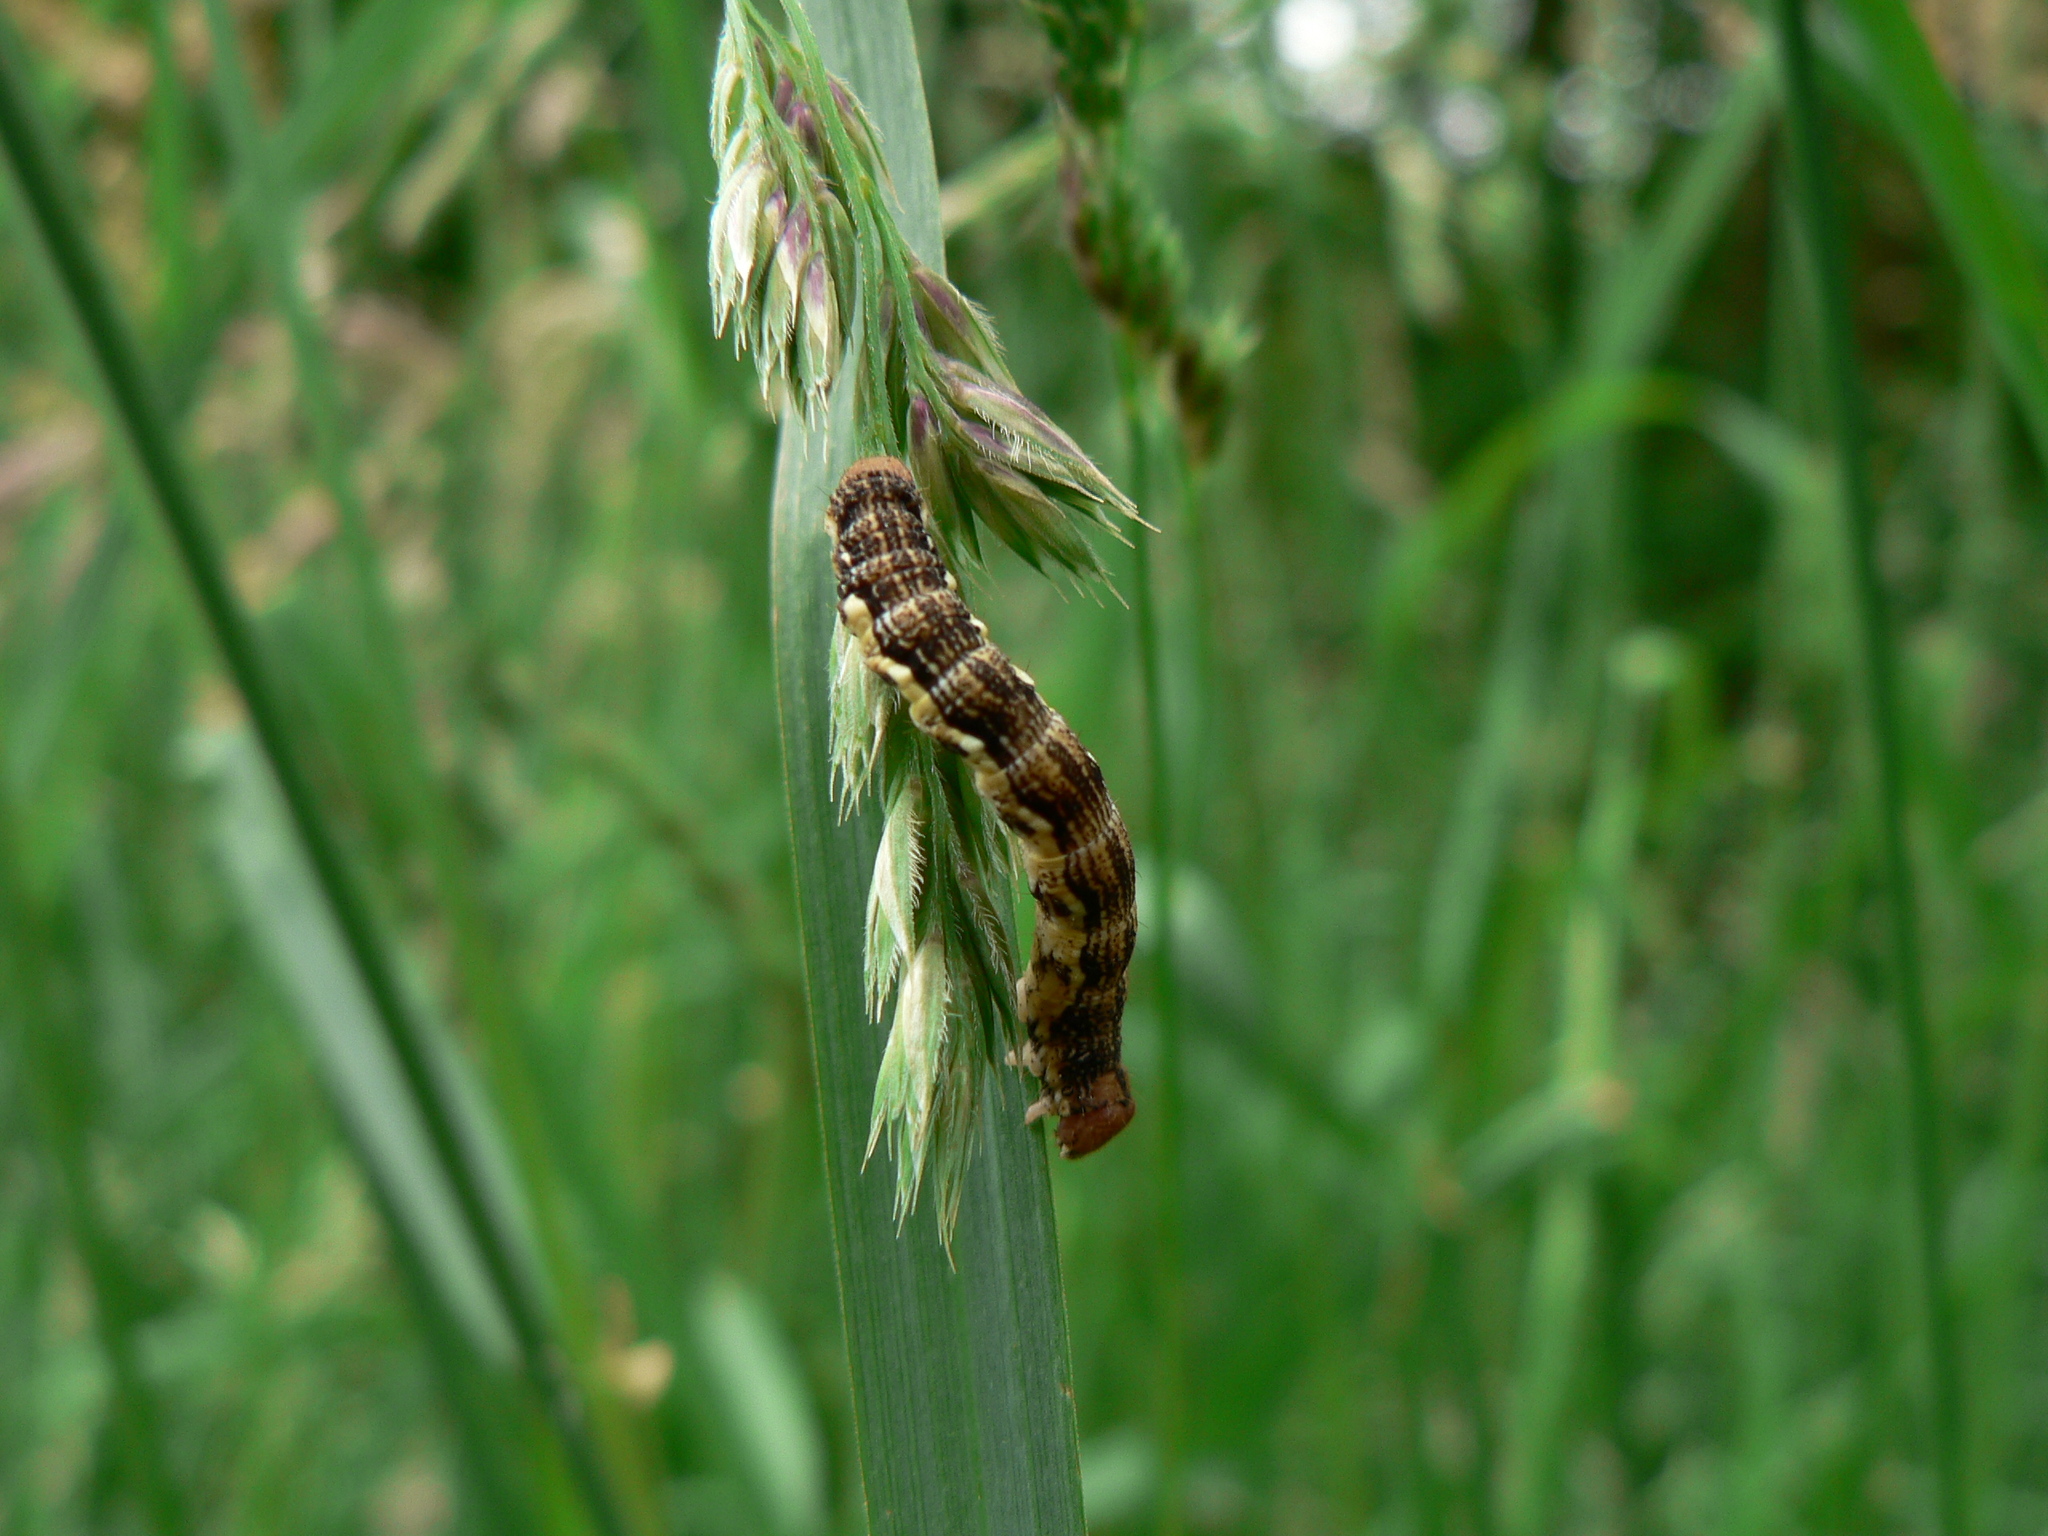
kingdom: Animalia
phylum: Arthropoda
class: Insecta
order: Lepidoptera
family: Geometridae
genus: Erannis
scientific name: Erannis defoliaria
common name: Mottled umber
